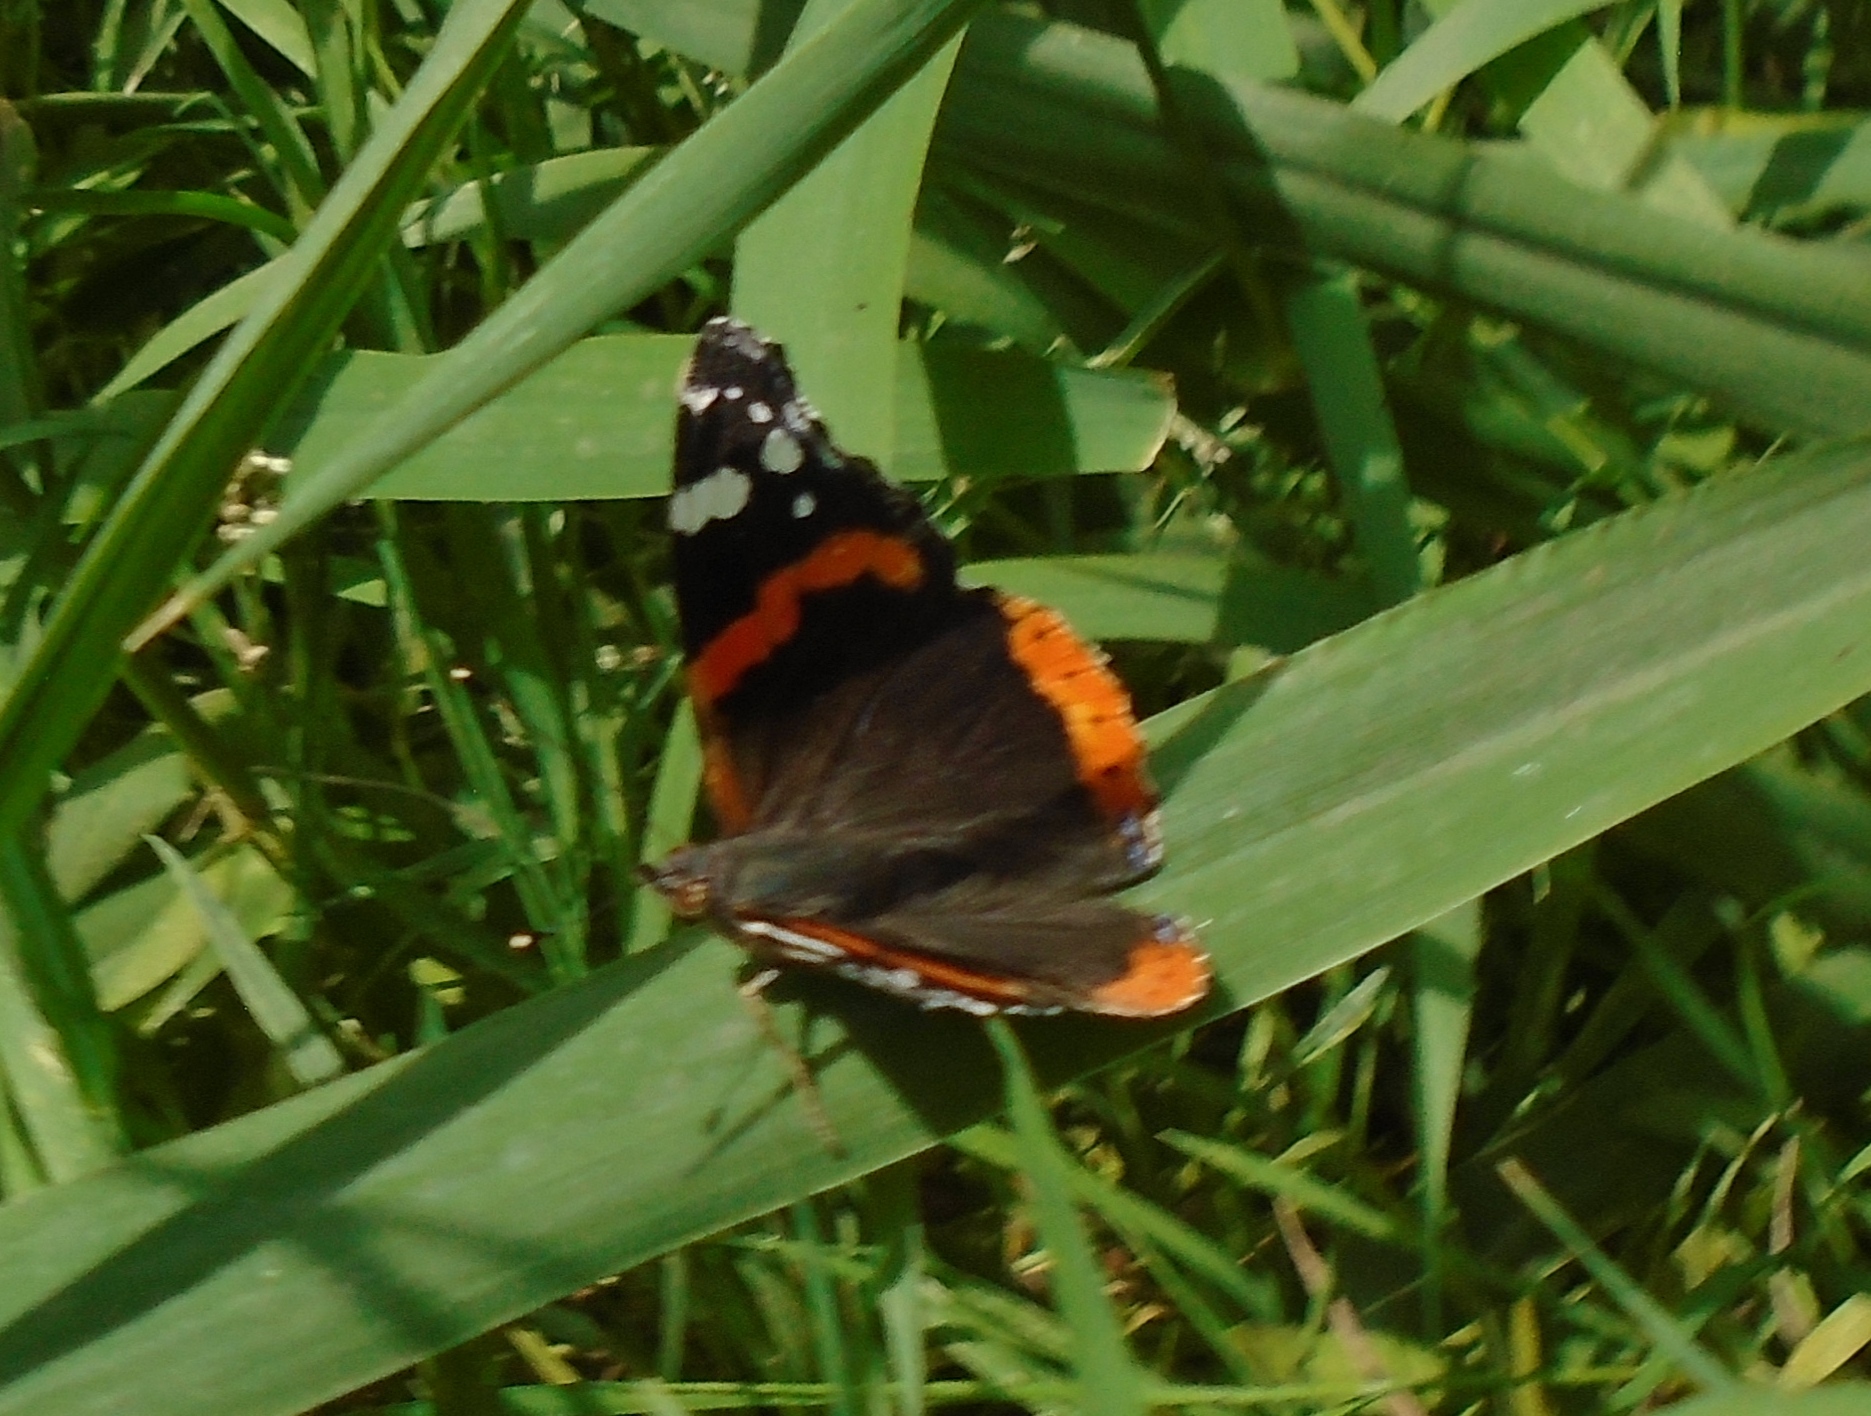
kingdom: Animalia
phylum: Arthropoda
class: Insecta
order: Lepidoptera
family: Nymphalidae
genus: Vanessa
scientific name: Vanessa atalanta
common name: Red admiral
